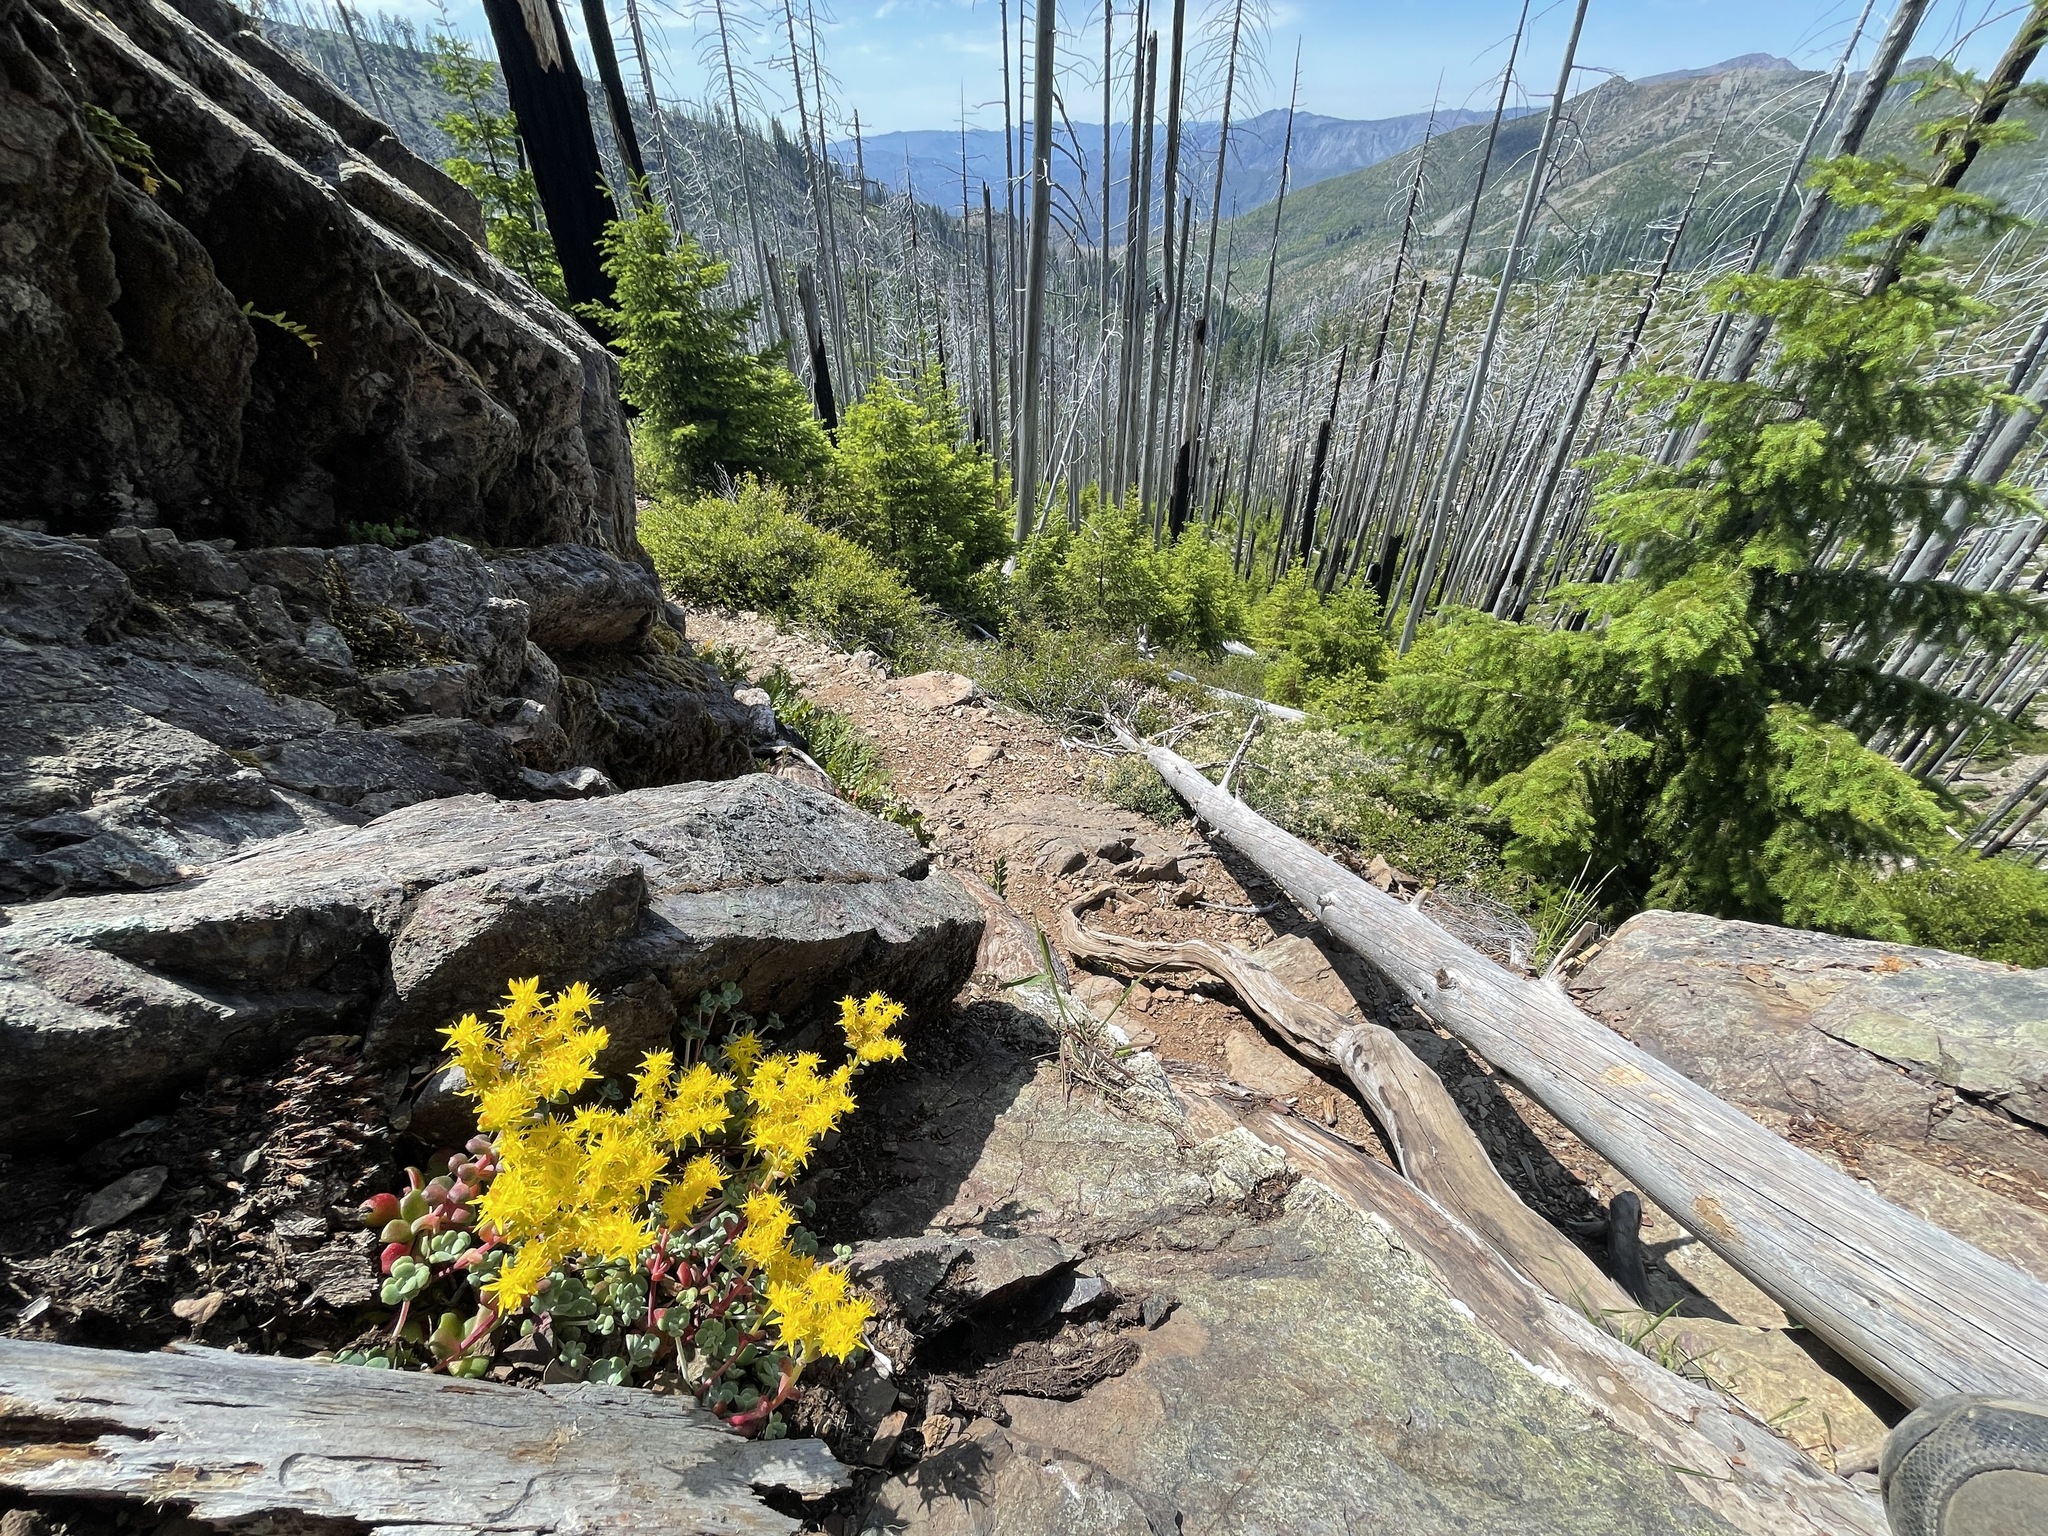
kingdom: Plantae
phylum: Tracheophyta
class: Magnoliopsida
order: Saxifragales
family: Crassulaceae
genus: Sedum
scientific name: Sedum spathulifolium
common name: Colorado stonecrop
